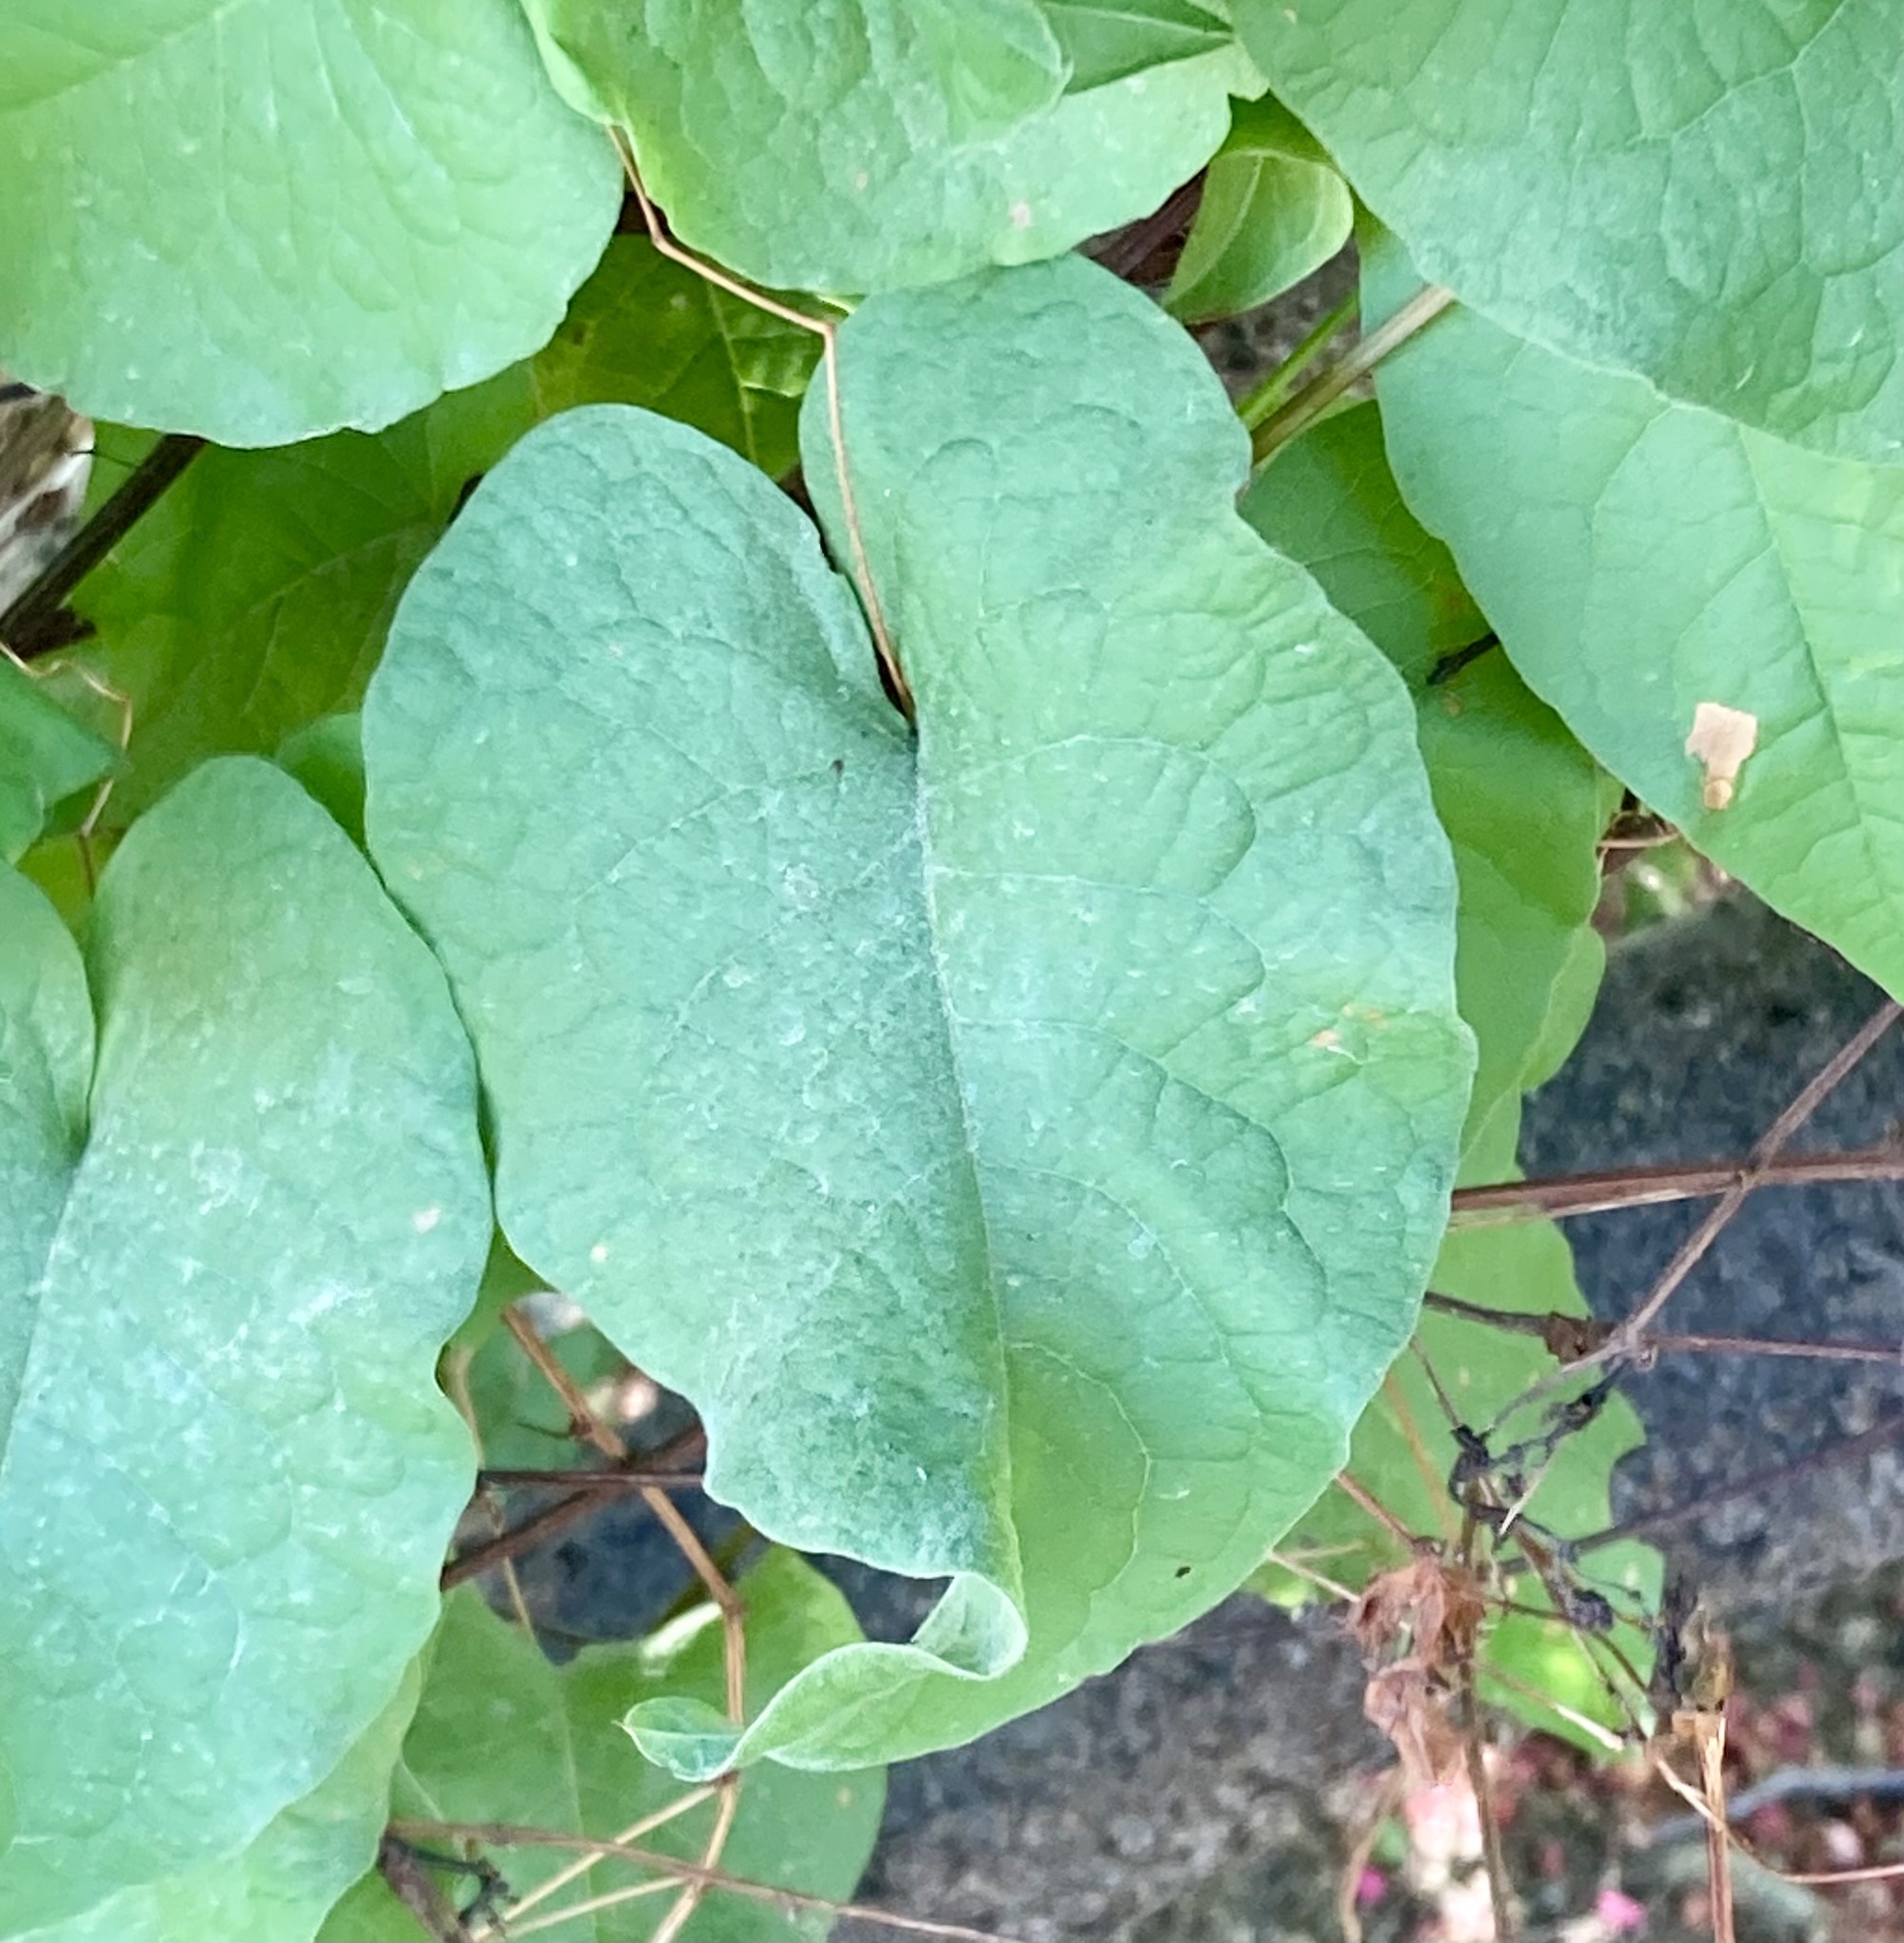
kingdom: Plantae
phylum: Tracheophyta
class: Magnoliopsida
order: Caryophyllales
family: Polygonaceae
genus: Antigonon
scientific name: Antigonon leptopus
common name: Coral vine
